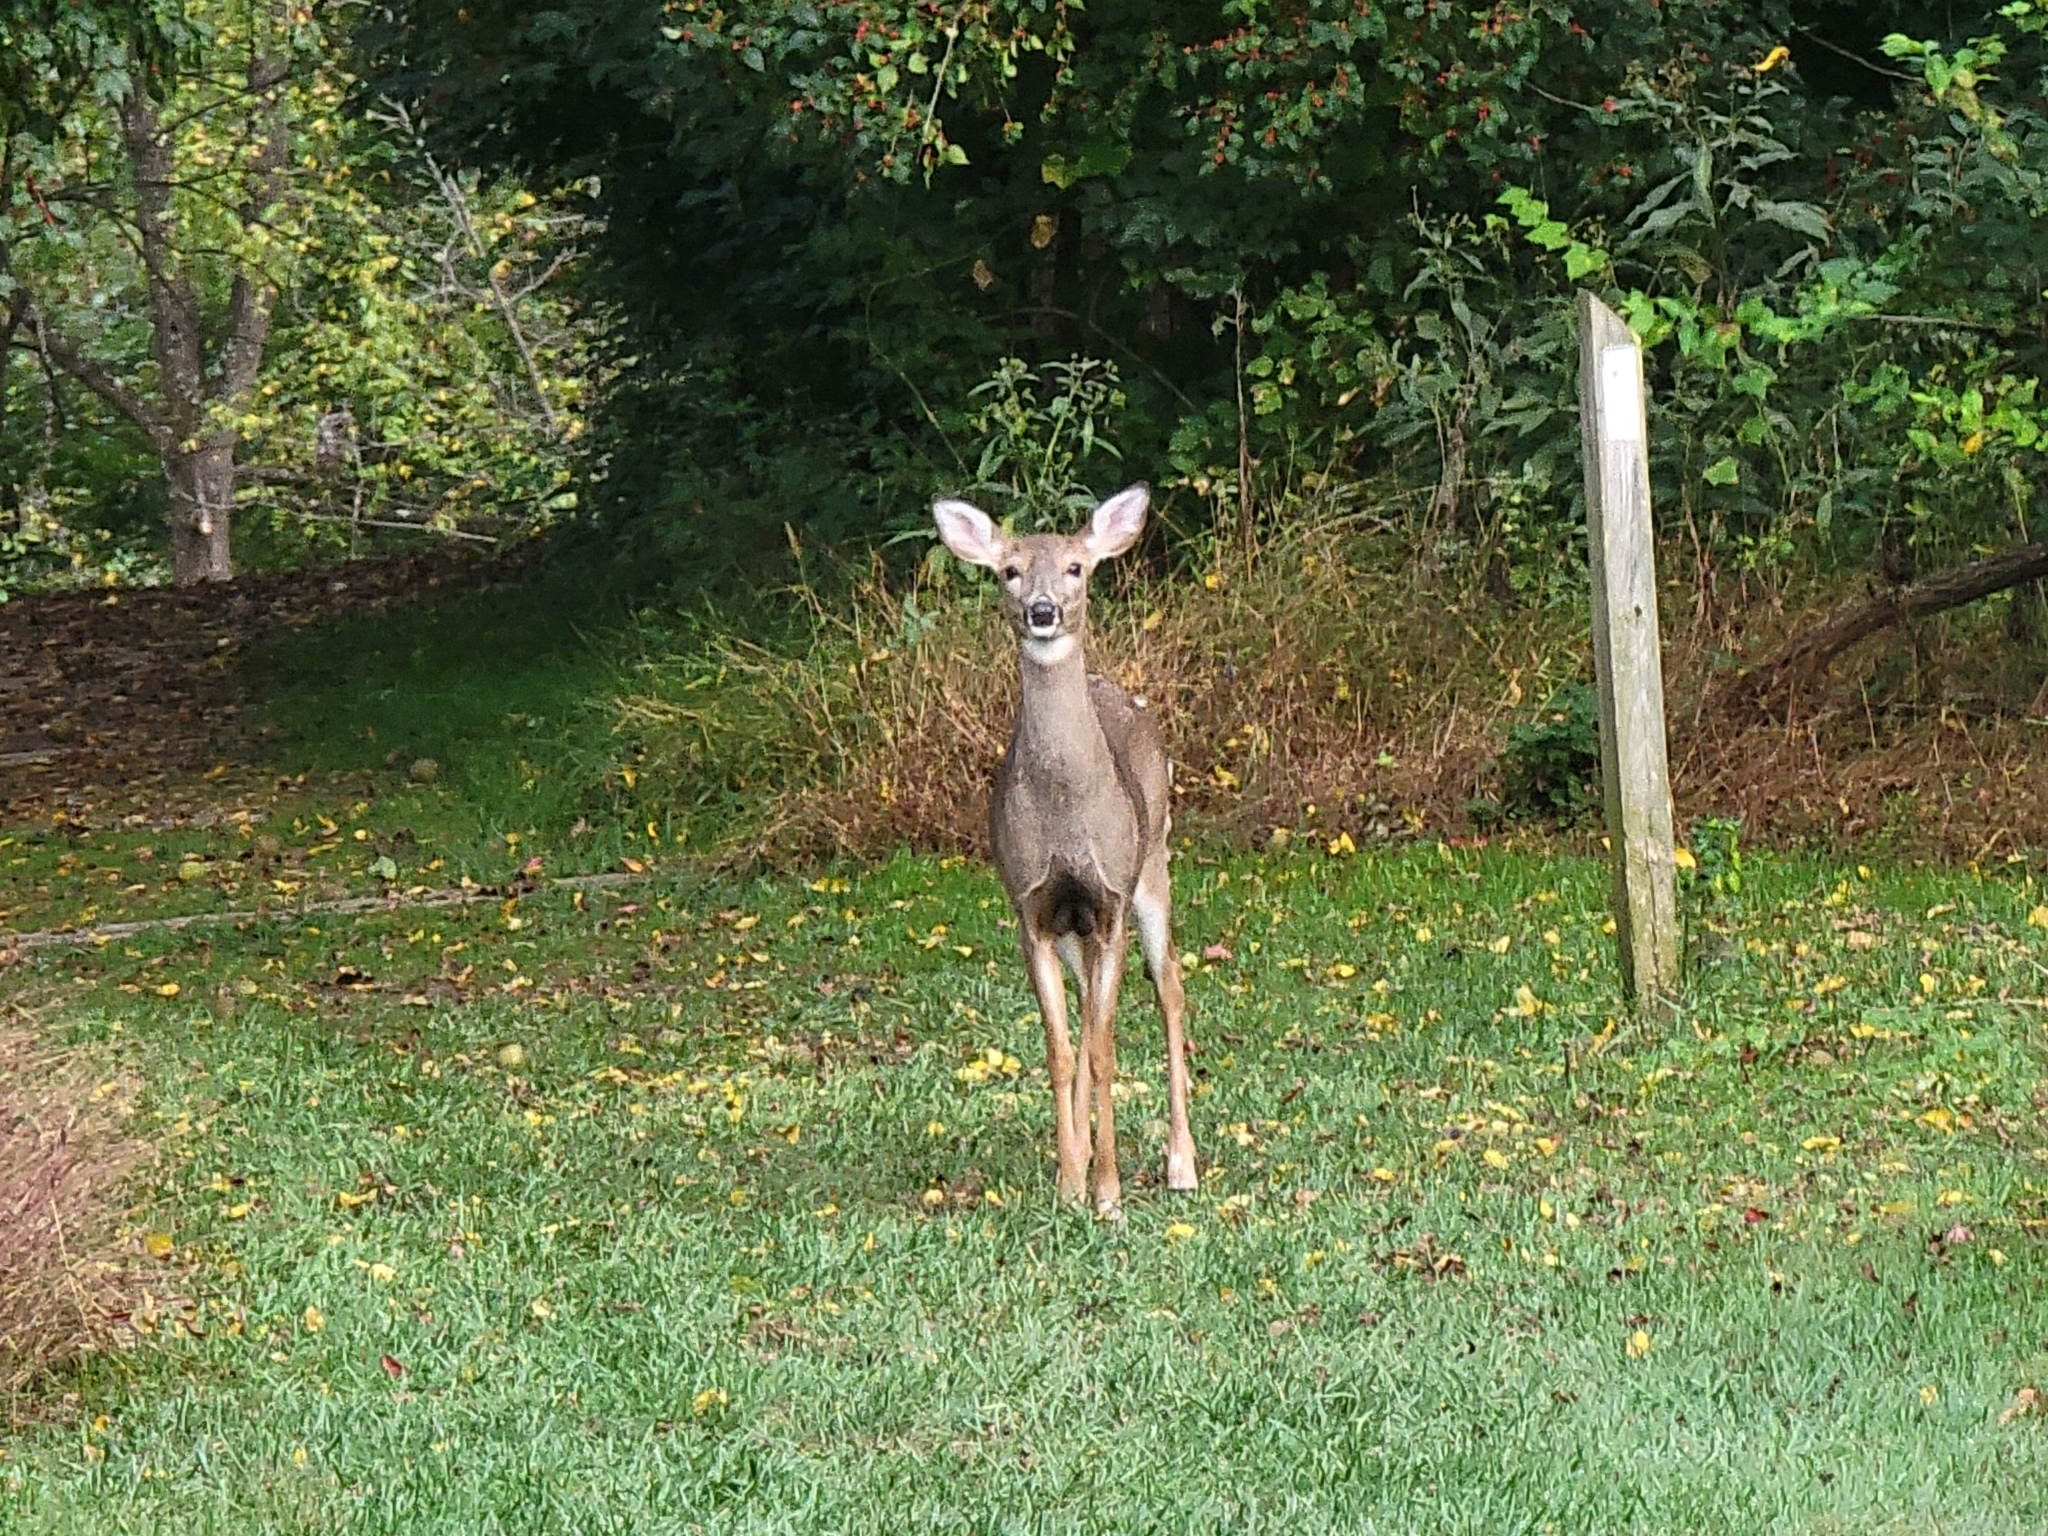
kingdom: Animalia
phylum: Chordata
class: Mammalia
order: Artiodactyla
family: Cervidae
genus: Odocoileus
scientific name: Odocoileus virginianus
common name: White-tailed deer
